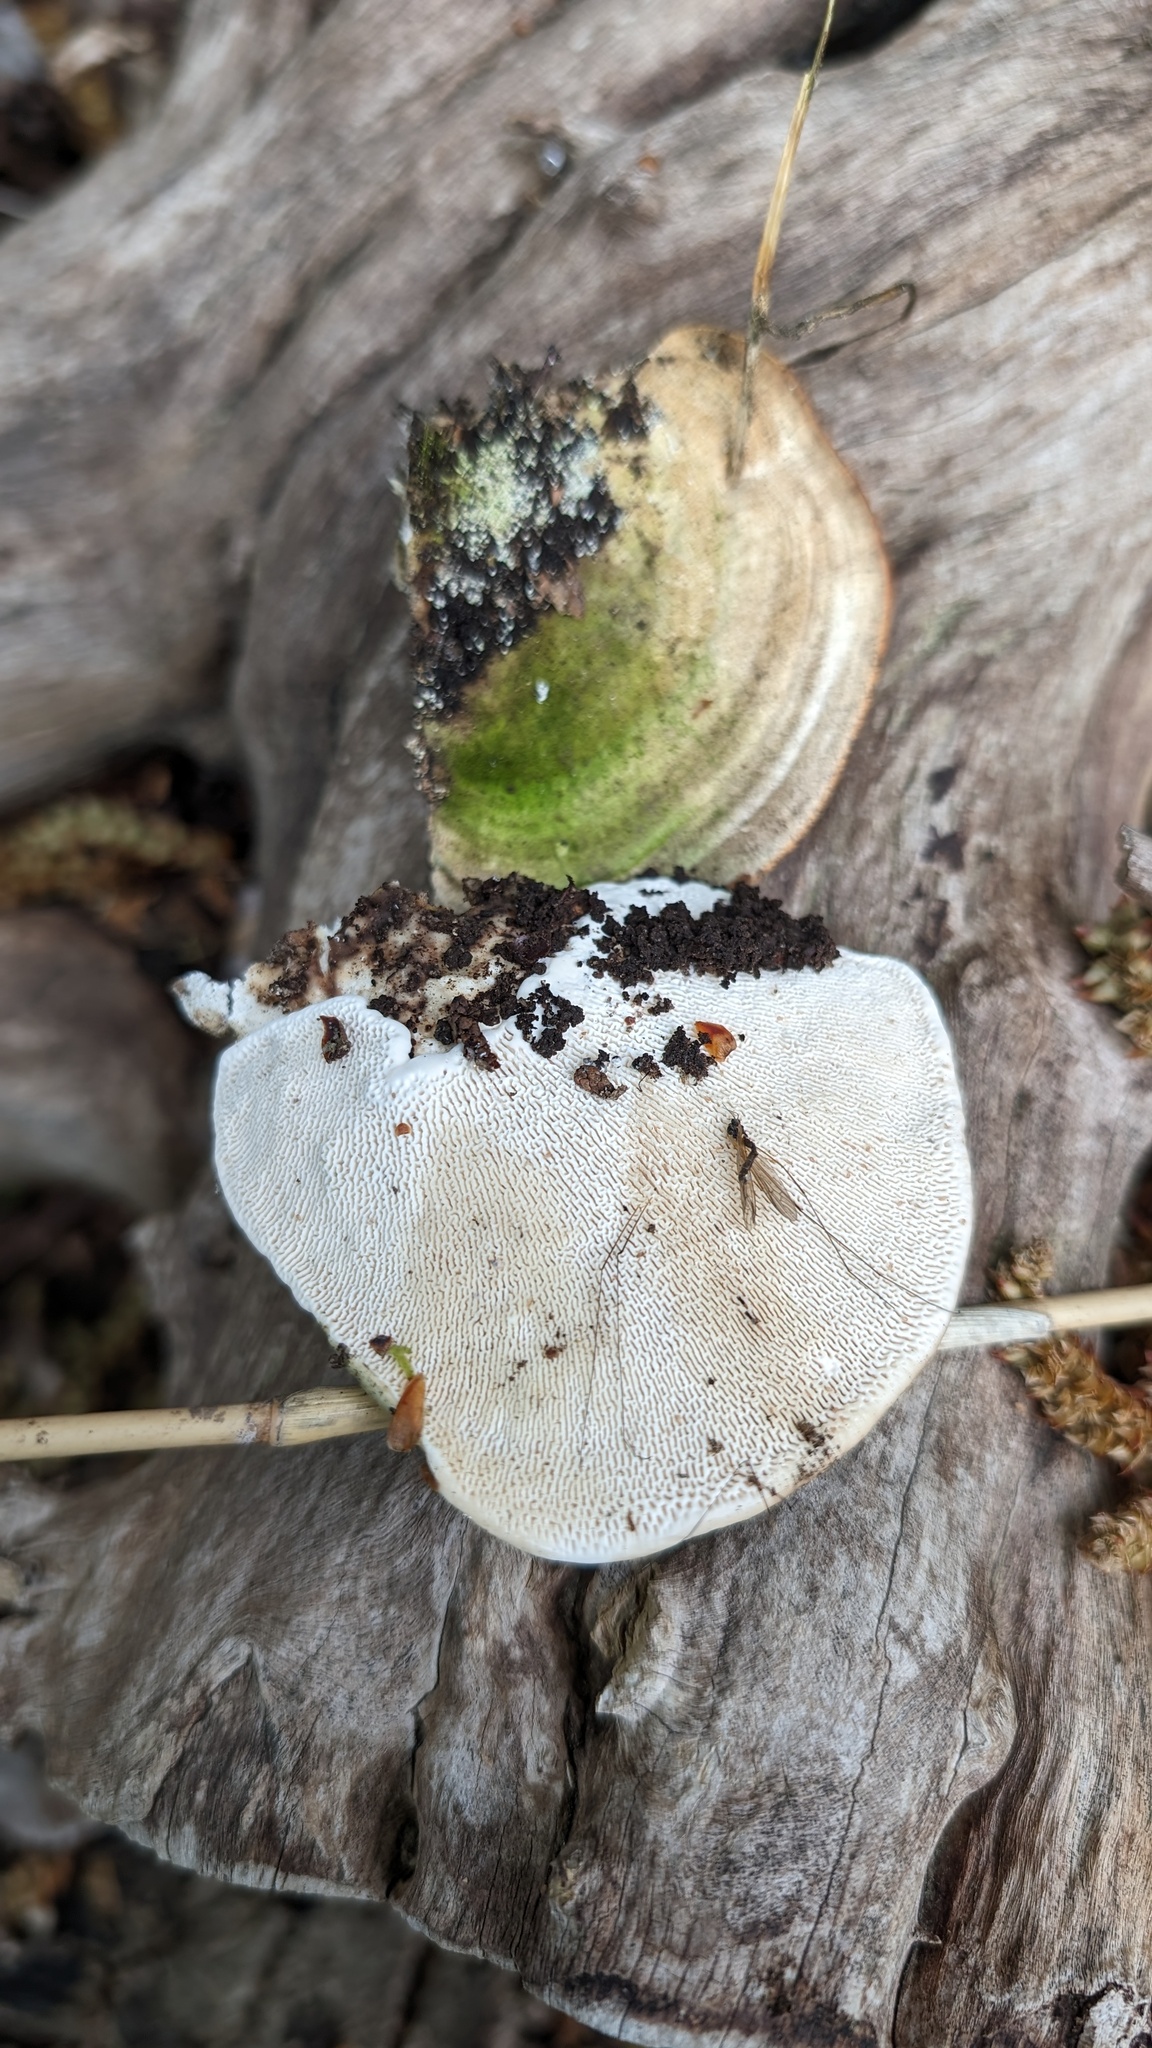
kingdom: Fungi
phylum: Basidiomycota
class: Agaricomycetes
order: Polyporales
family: Polyporaceae
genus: Trametes
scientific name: Trametes elegans
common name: White maze polypore
